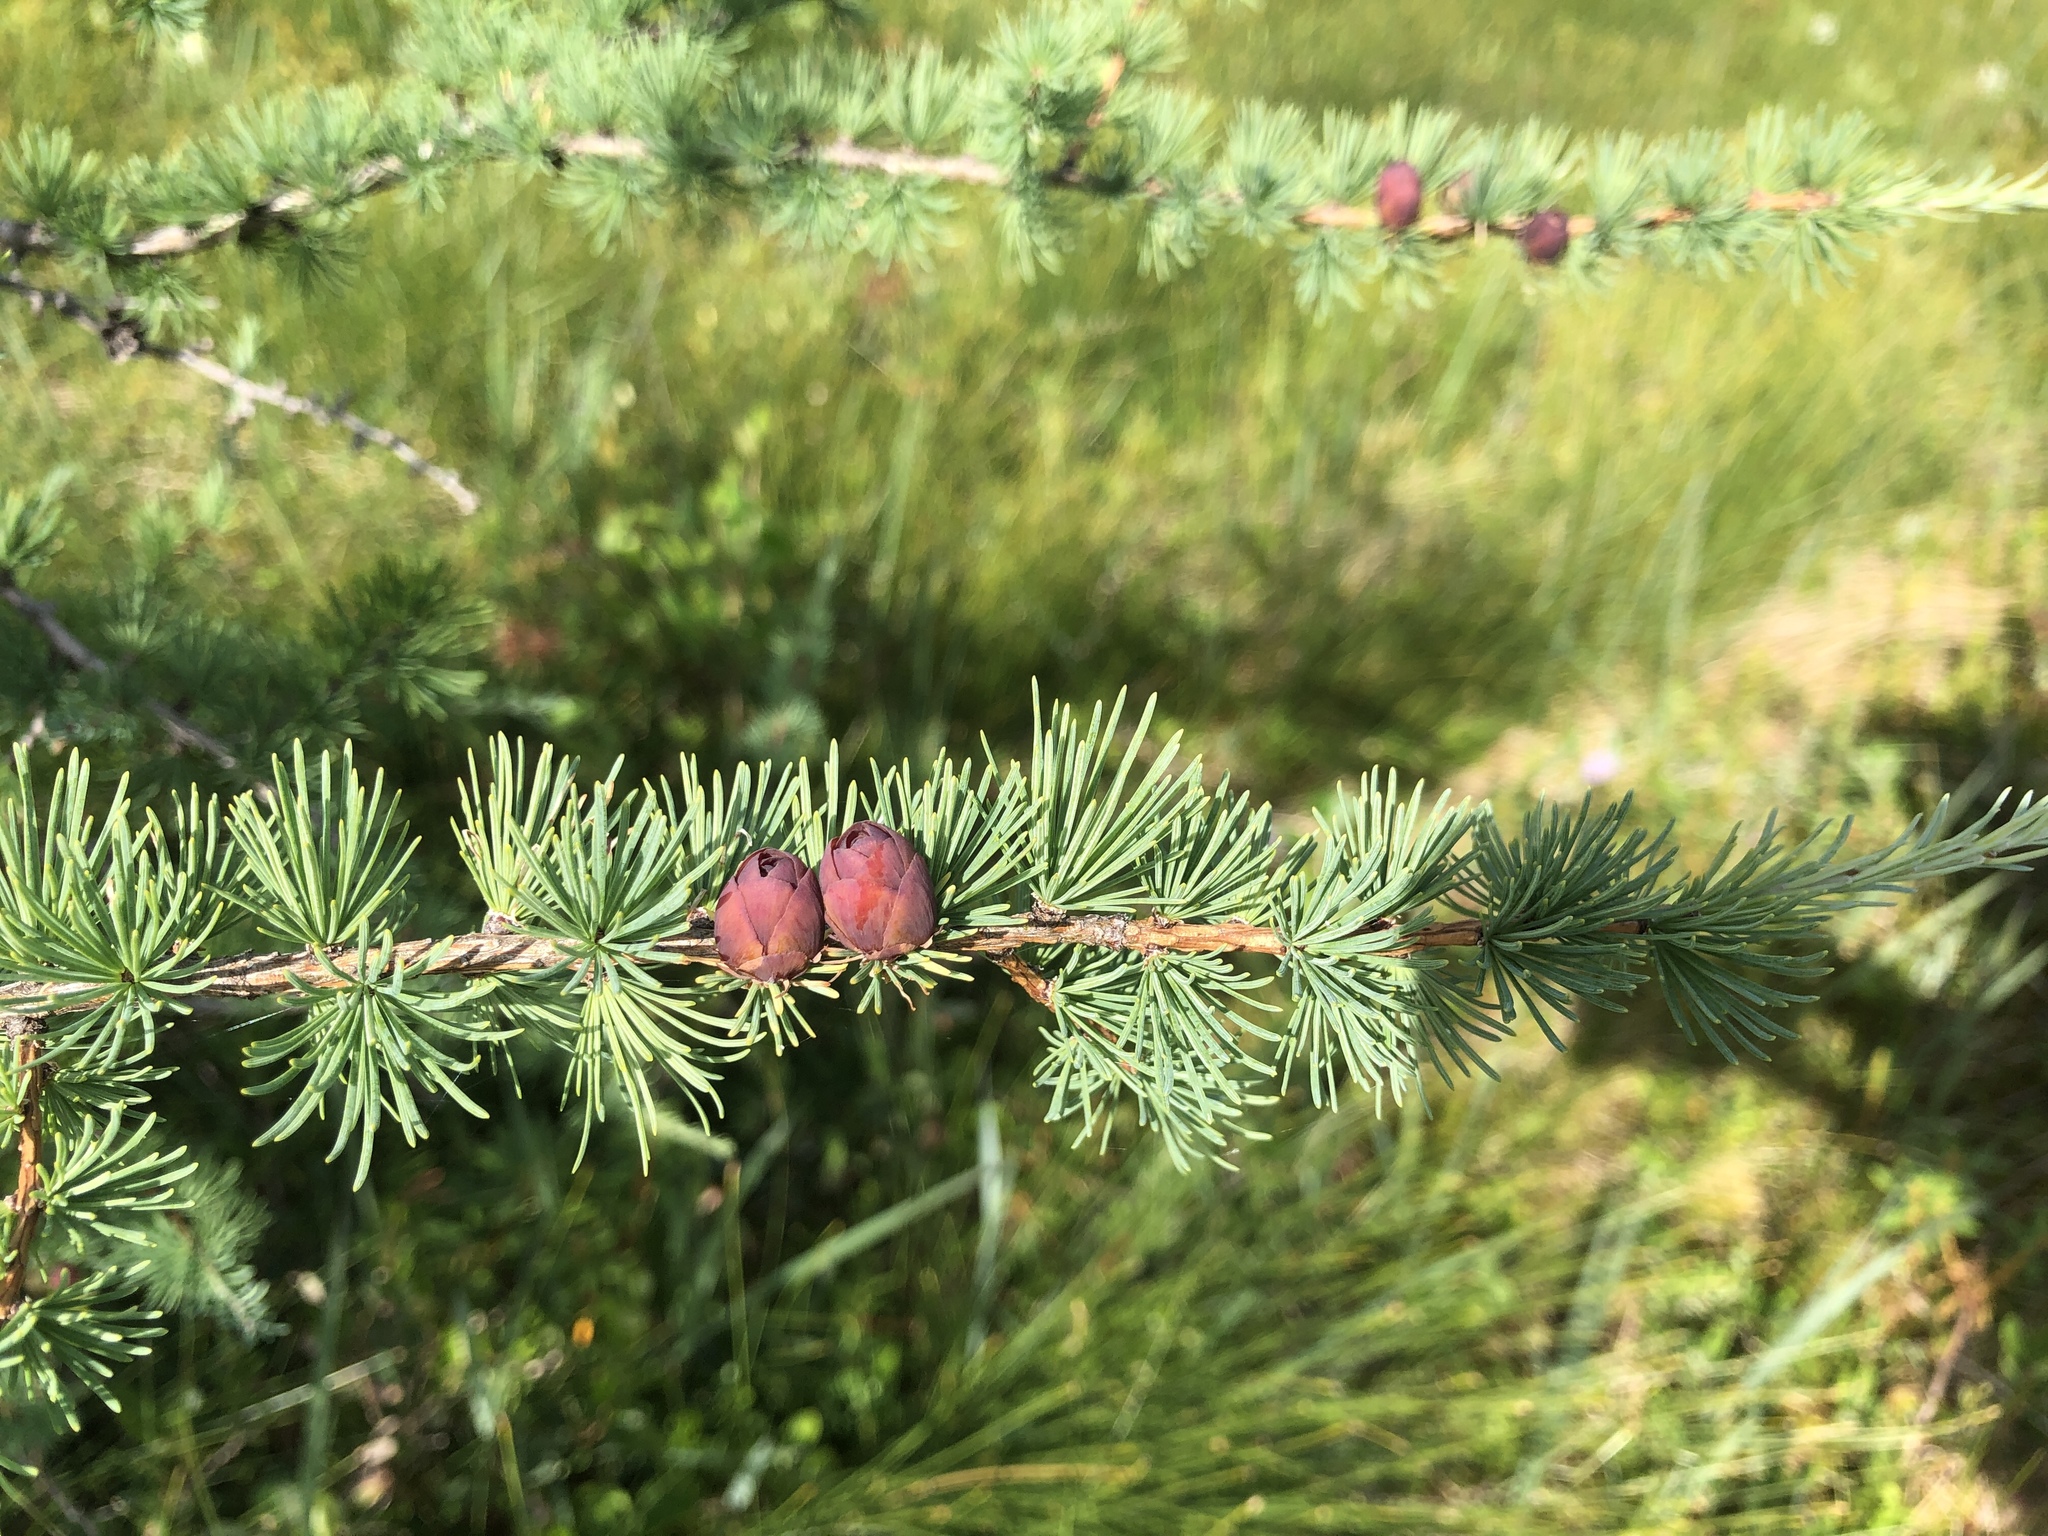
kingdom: Plantae
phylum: Tracheophyta
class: Pinopsida
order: Pinales
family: Pinaceae
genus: Larix
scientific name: Larix laricina
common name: American larch
